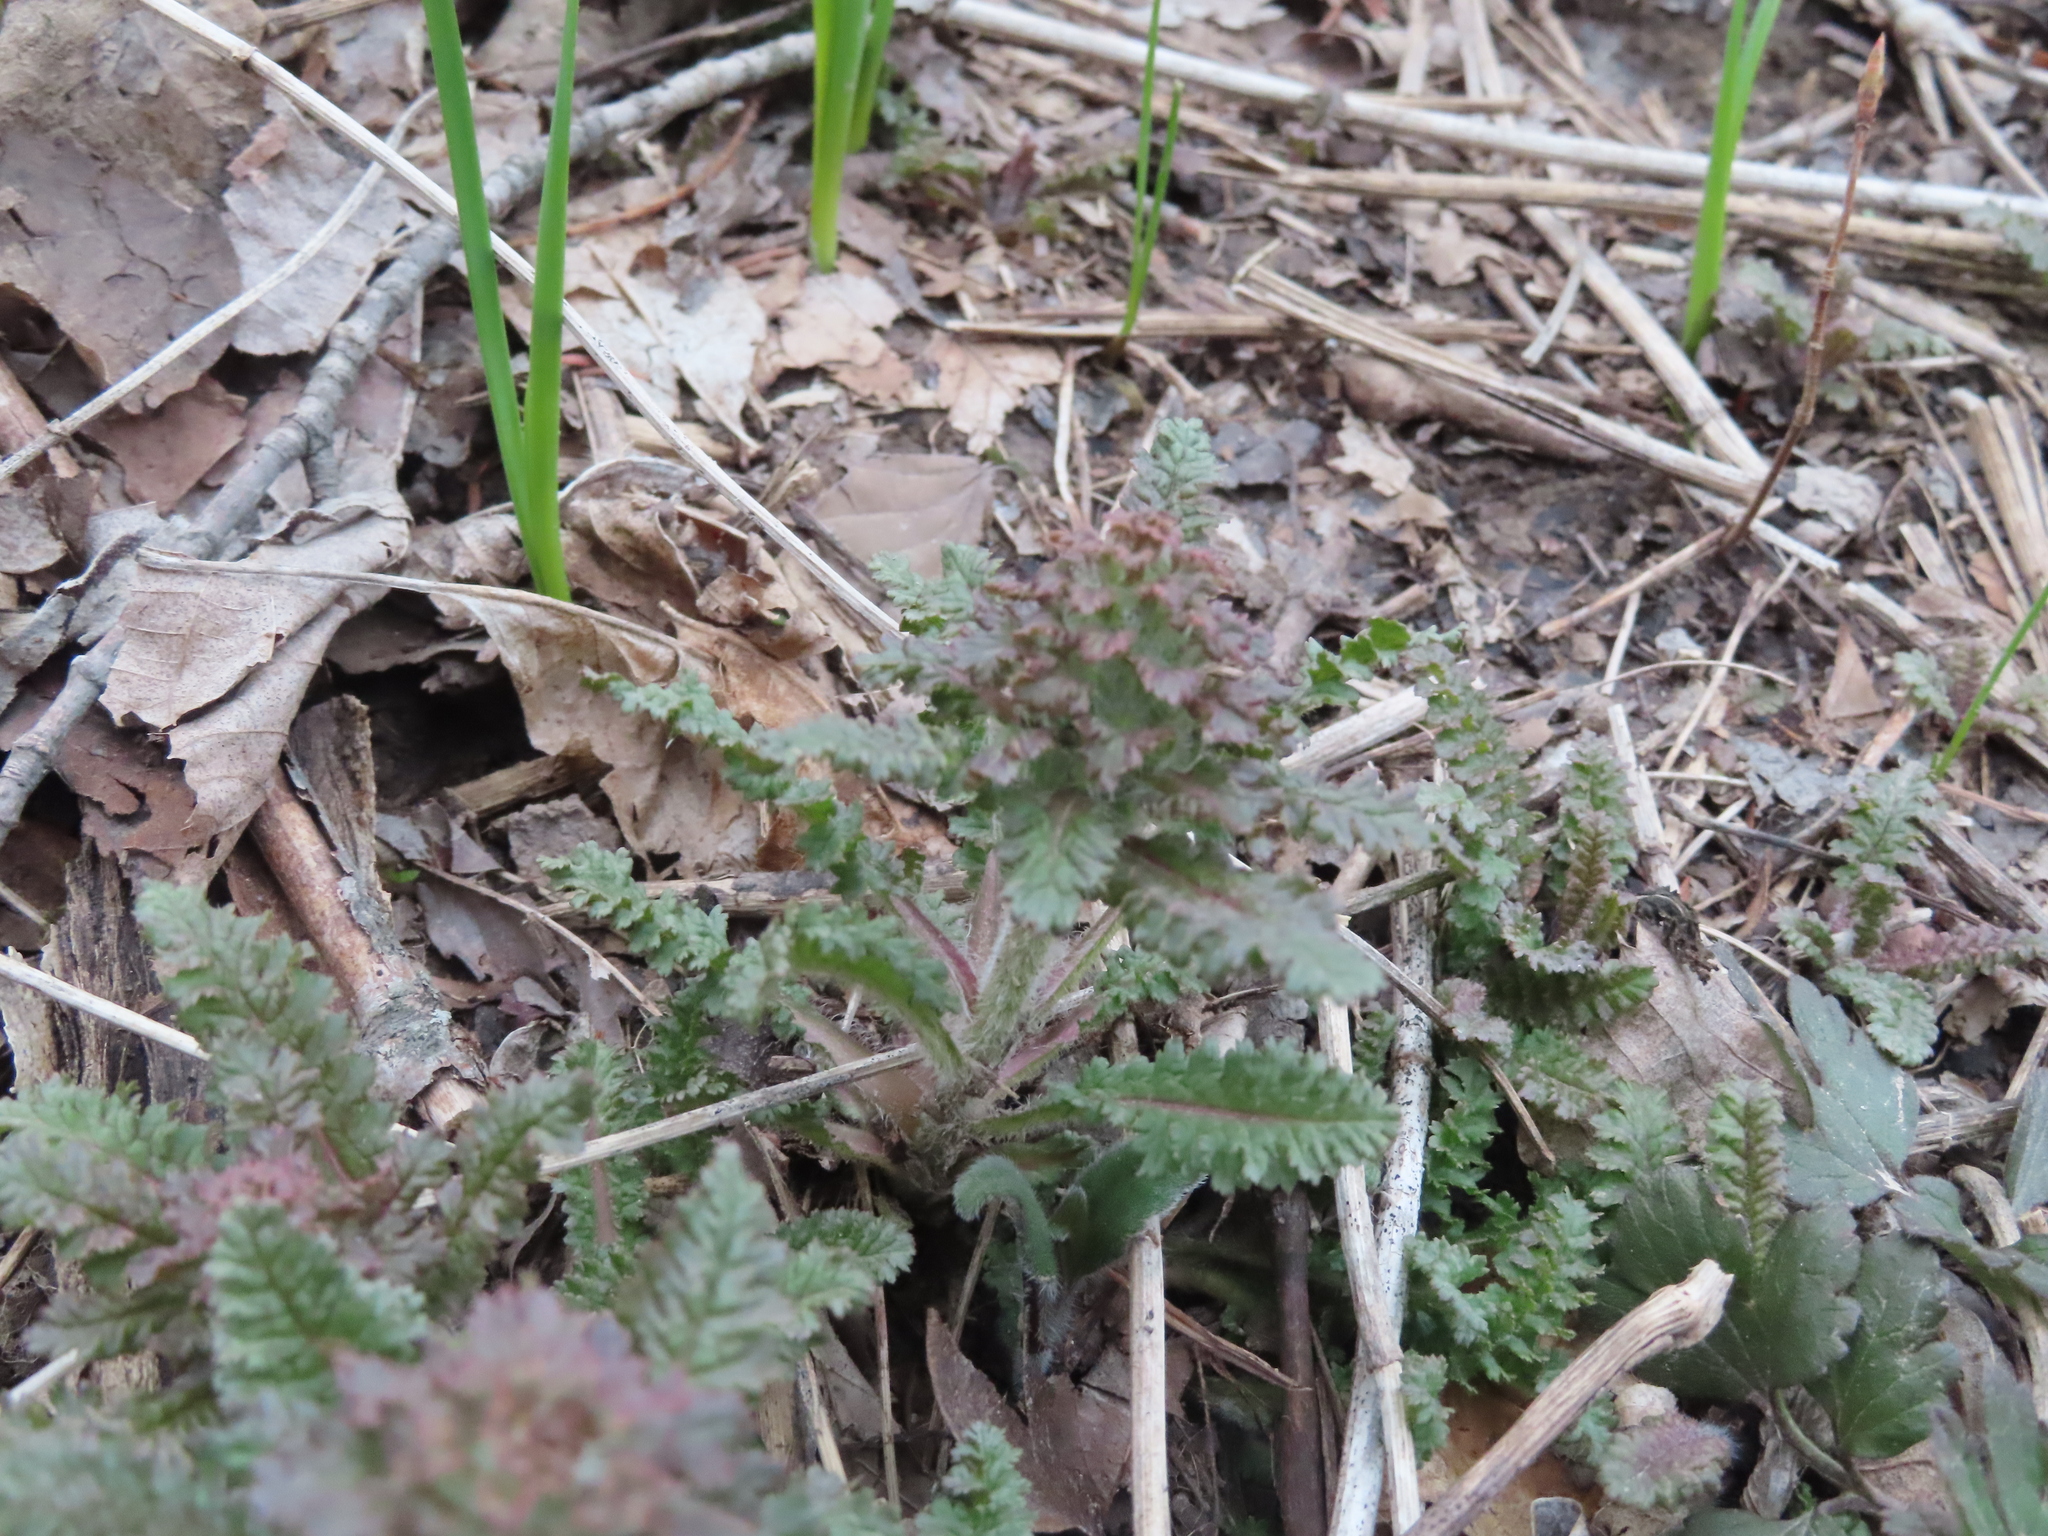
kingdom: Plantae
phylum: Tracheophyta
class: Magnoliopsida
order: Lamiales
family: Orobanchaceae
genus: Pedicularis
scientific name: Pedicularis canadensis
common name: Early lousewort
